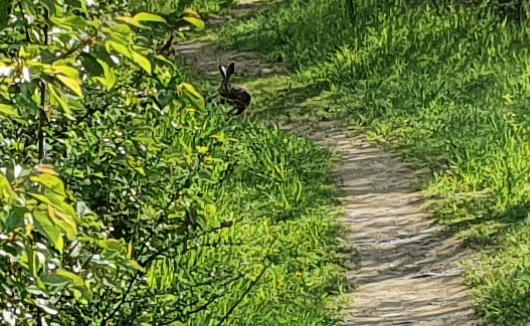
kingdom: Animalia
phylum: Chordata
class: Mammalia
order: Lagomorpha
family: Leporidae
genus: Lepus
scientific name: Lepus europaeus
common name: European hare
